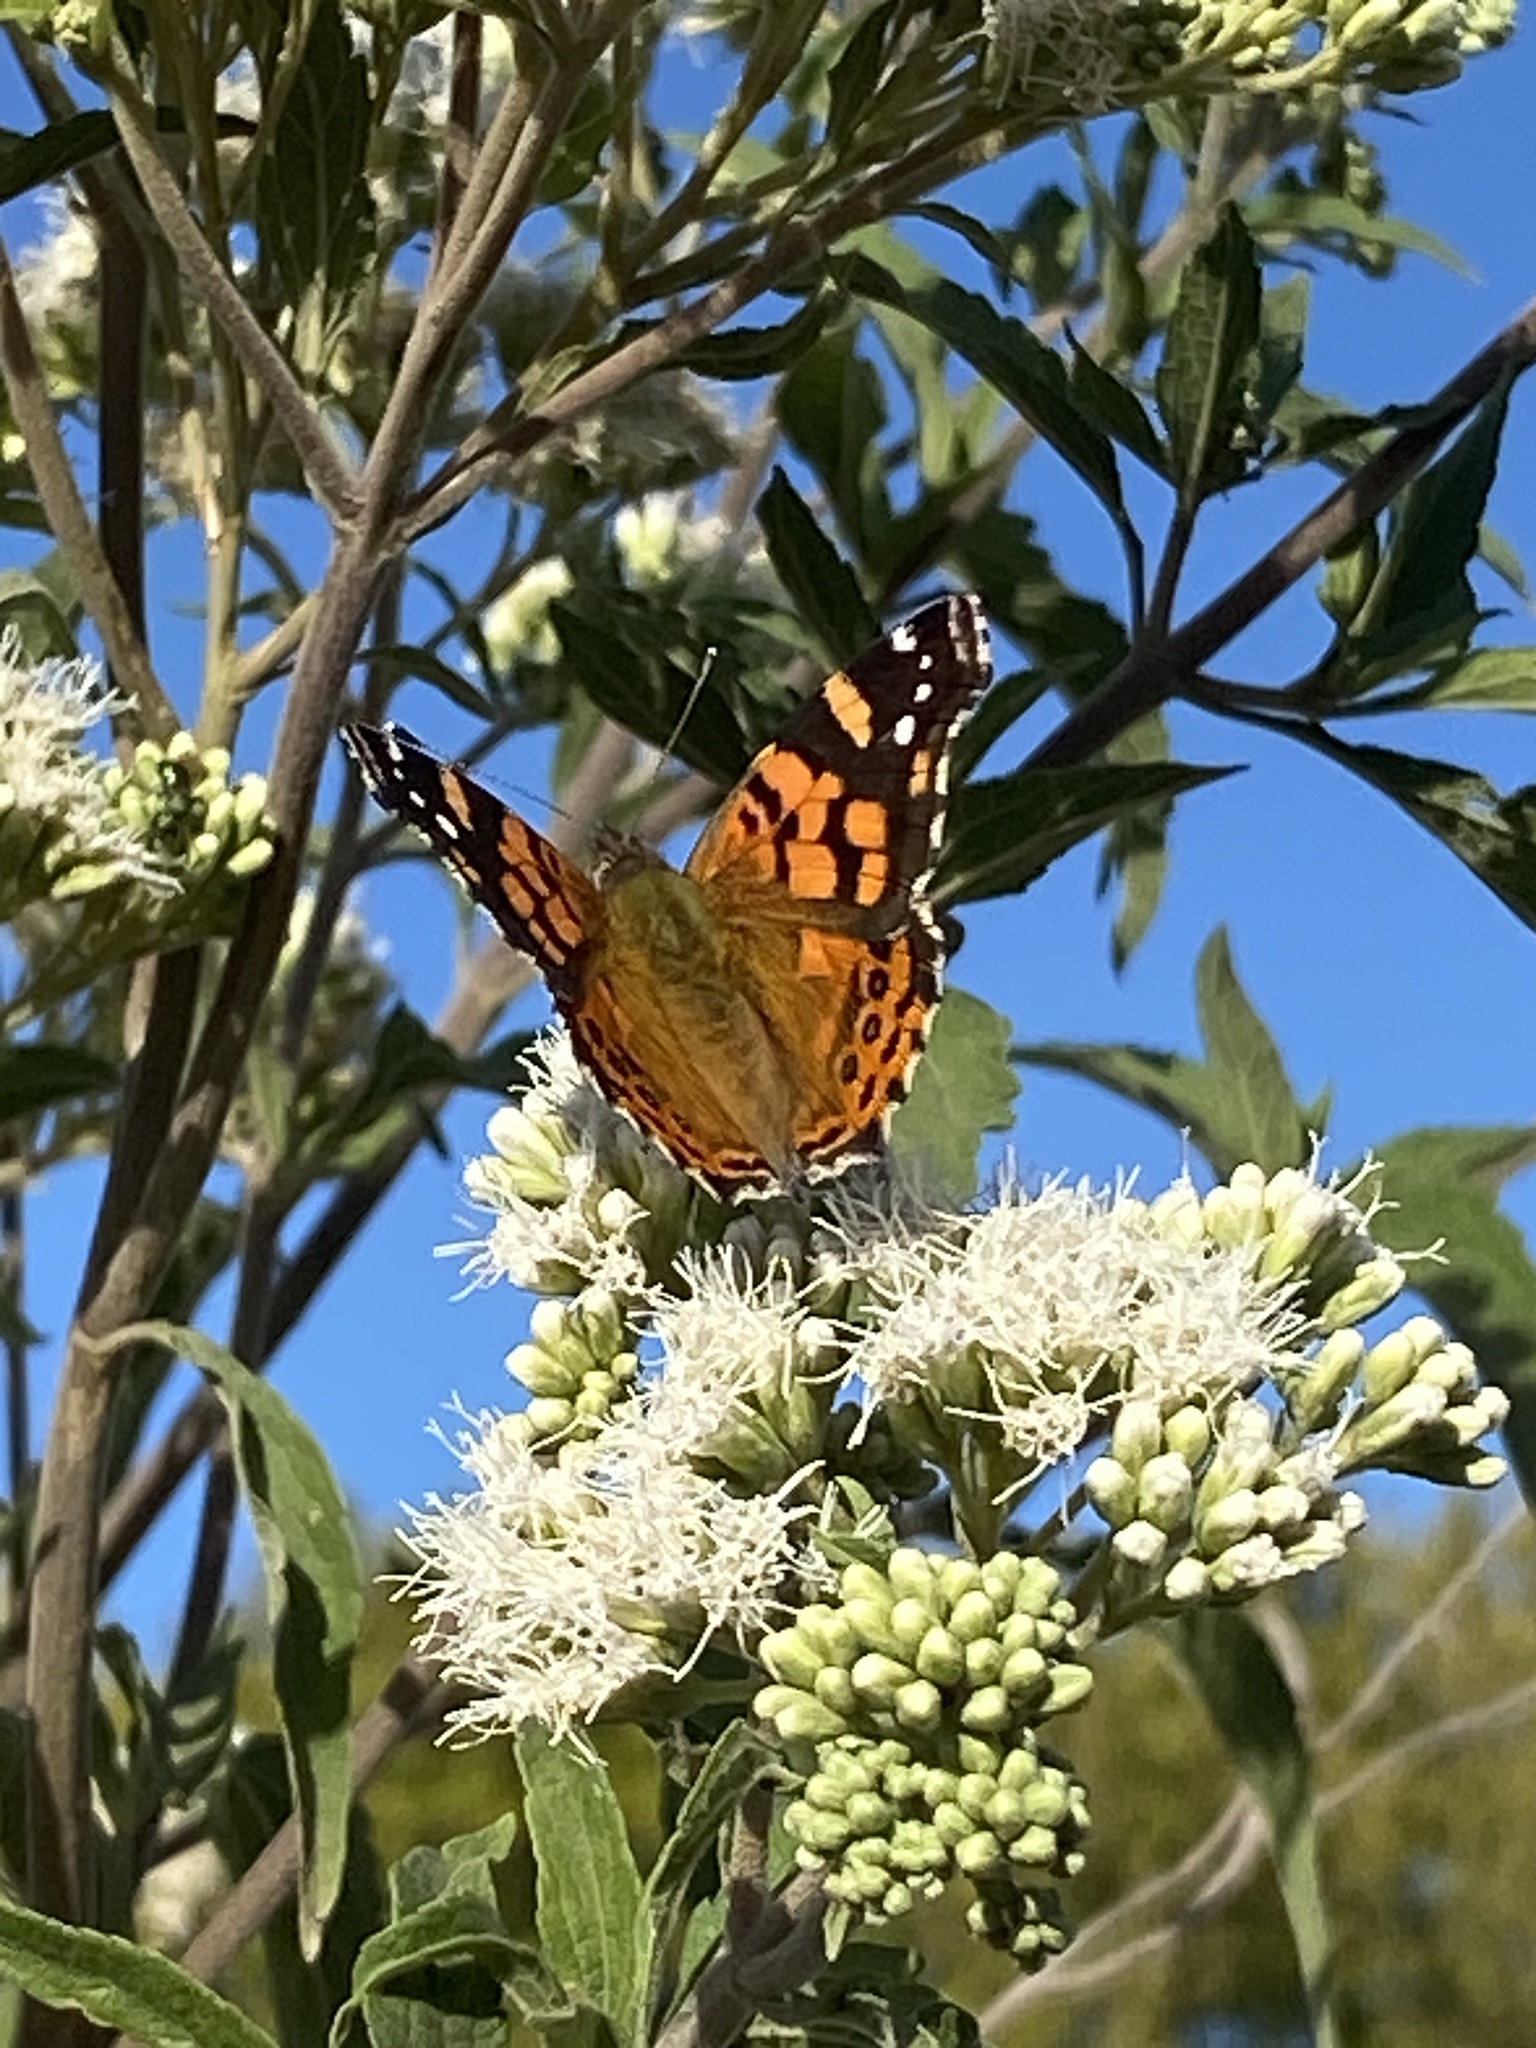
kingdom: Animalia
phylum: Arthropoda
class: Insecta
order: Lepidoptera
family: Nymphalidae
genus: Vanessa
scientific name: Vanessa carye
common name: Subtropical lady
